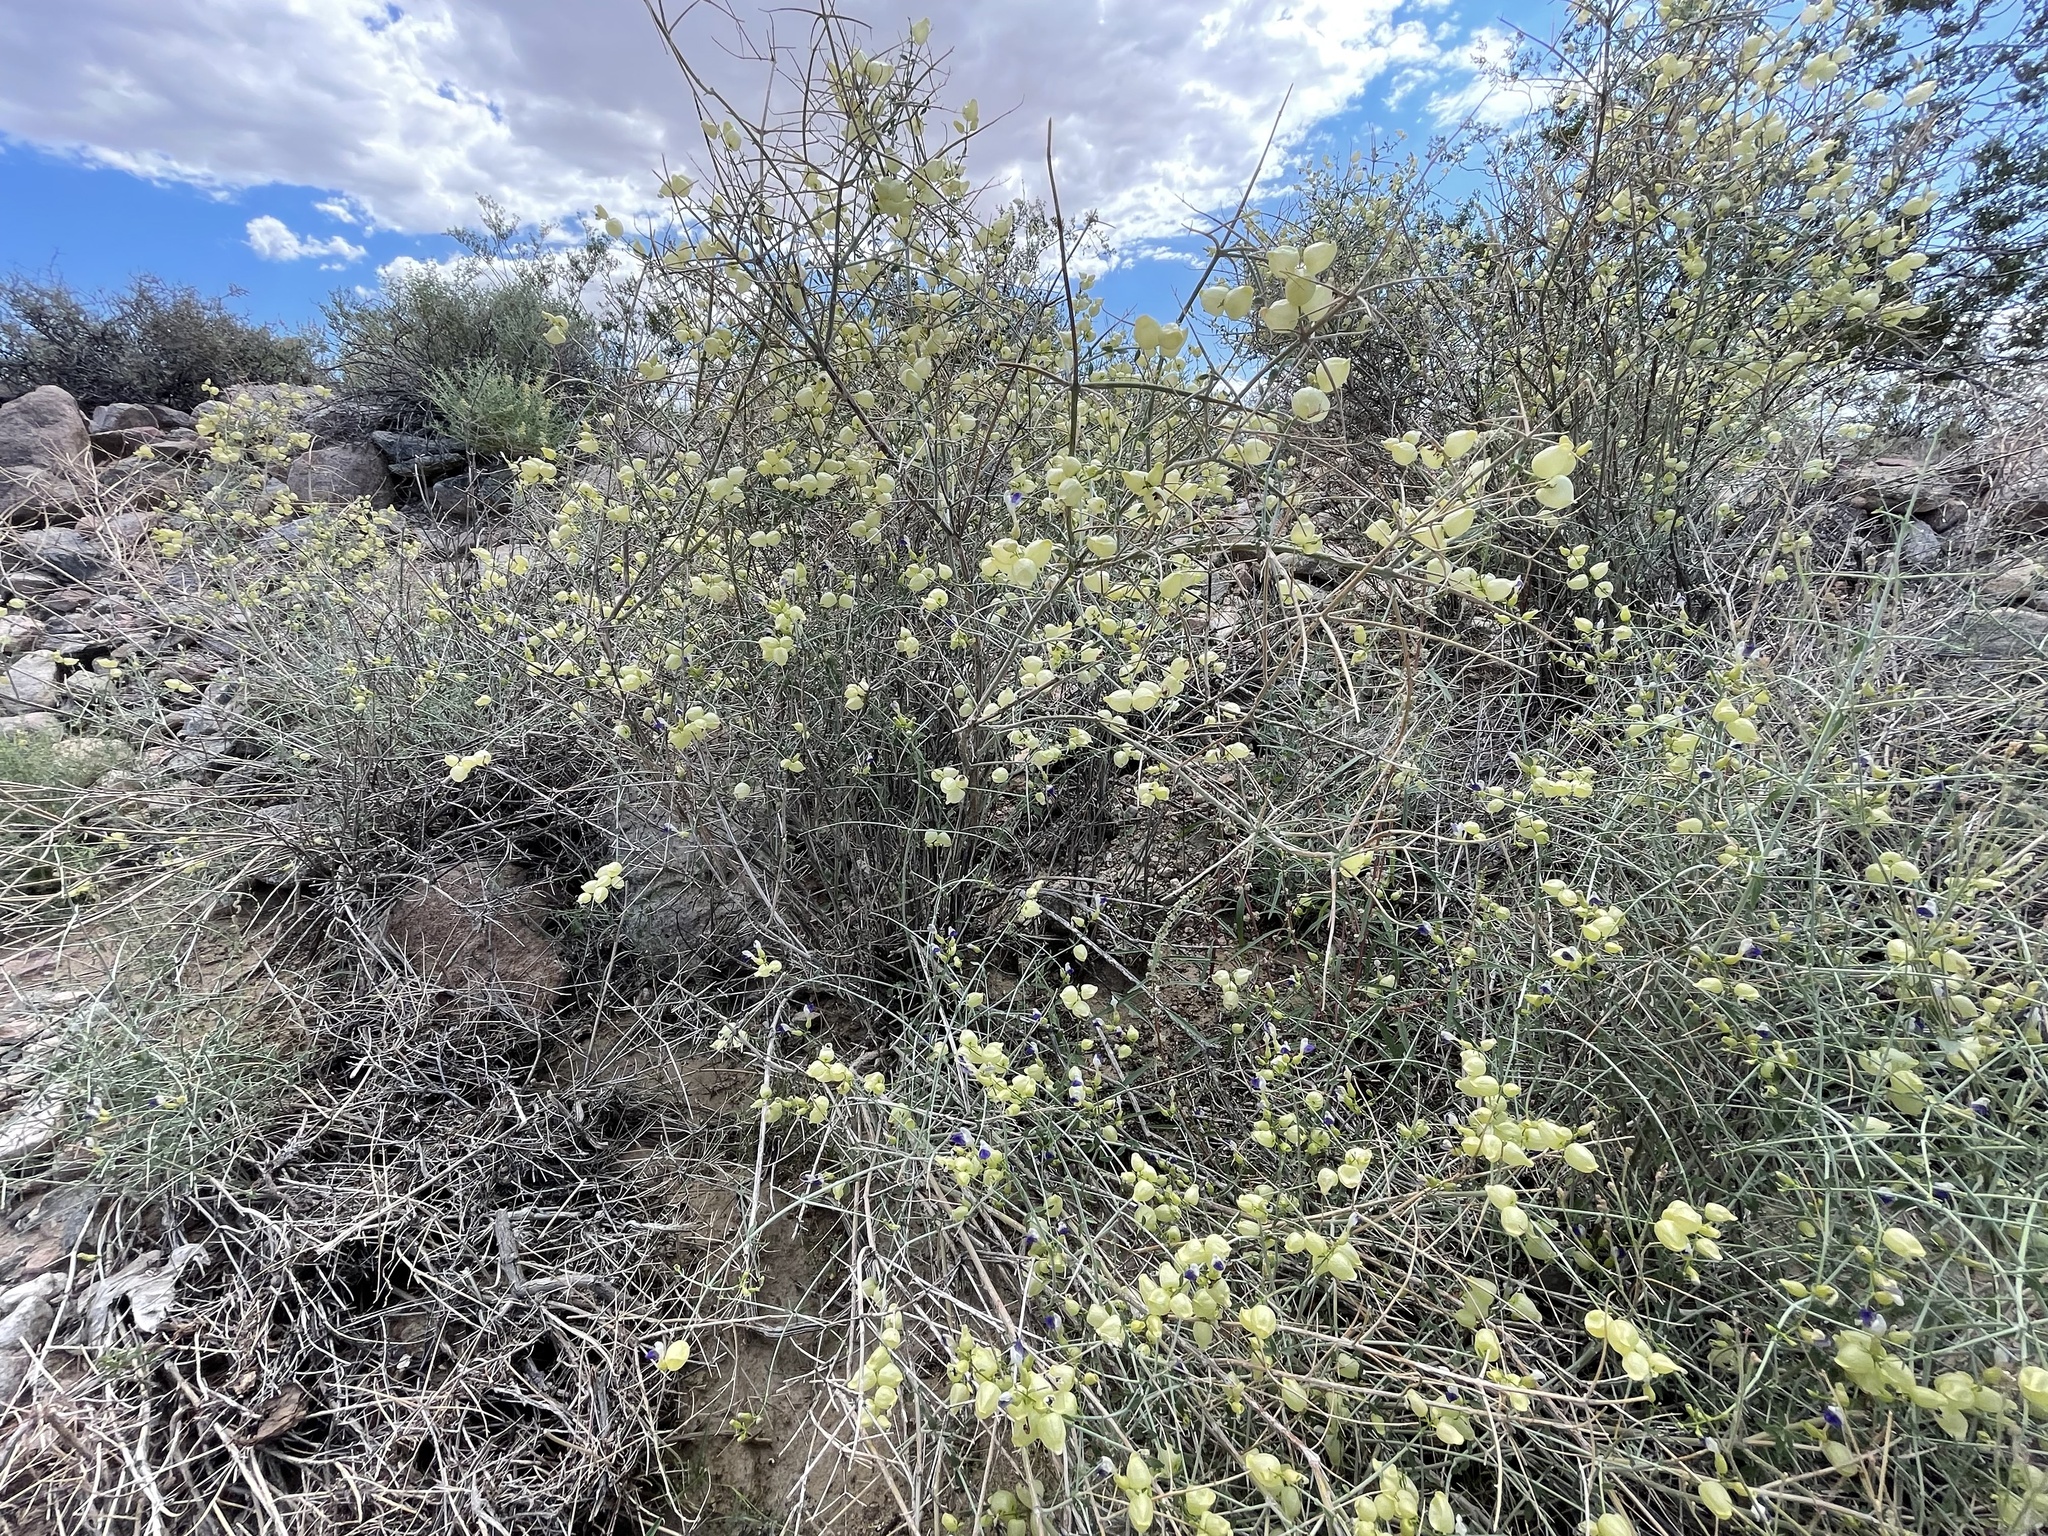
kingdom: Plantae
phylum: Tracheophyta
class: Magnoliopsida
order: Lamiales
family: Lamiaceae
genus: Scutellaria
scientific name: Scutellaria mexicana
